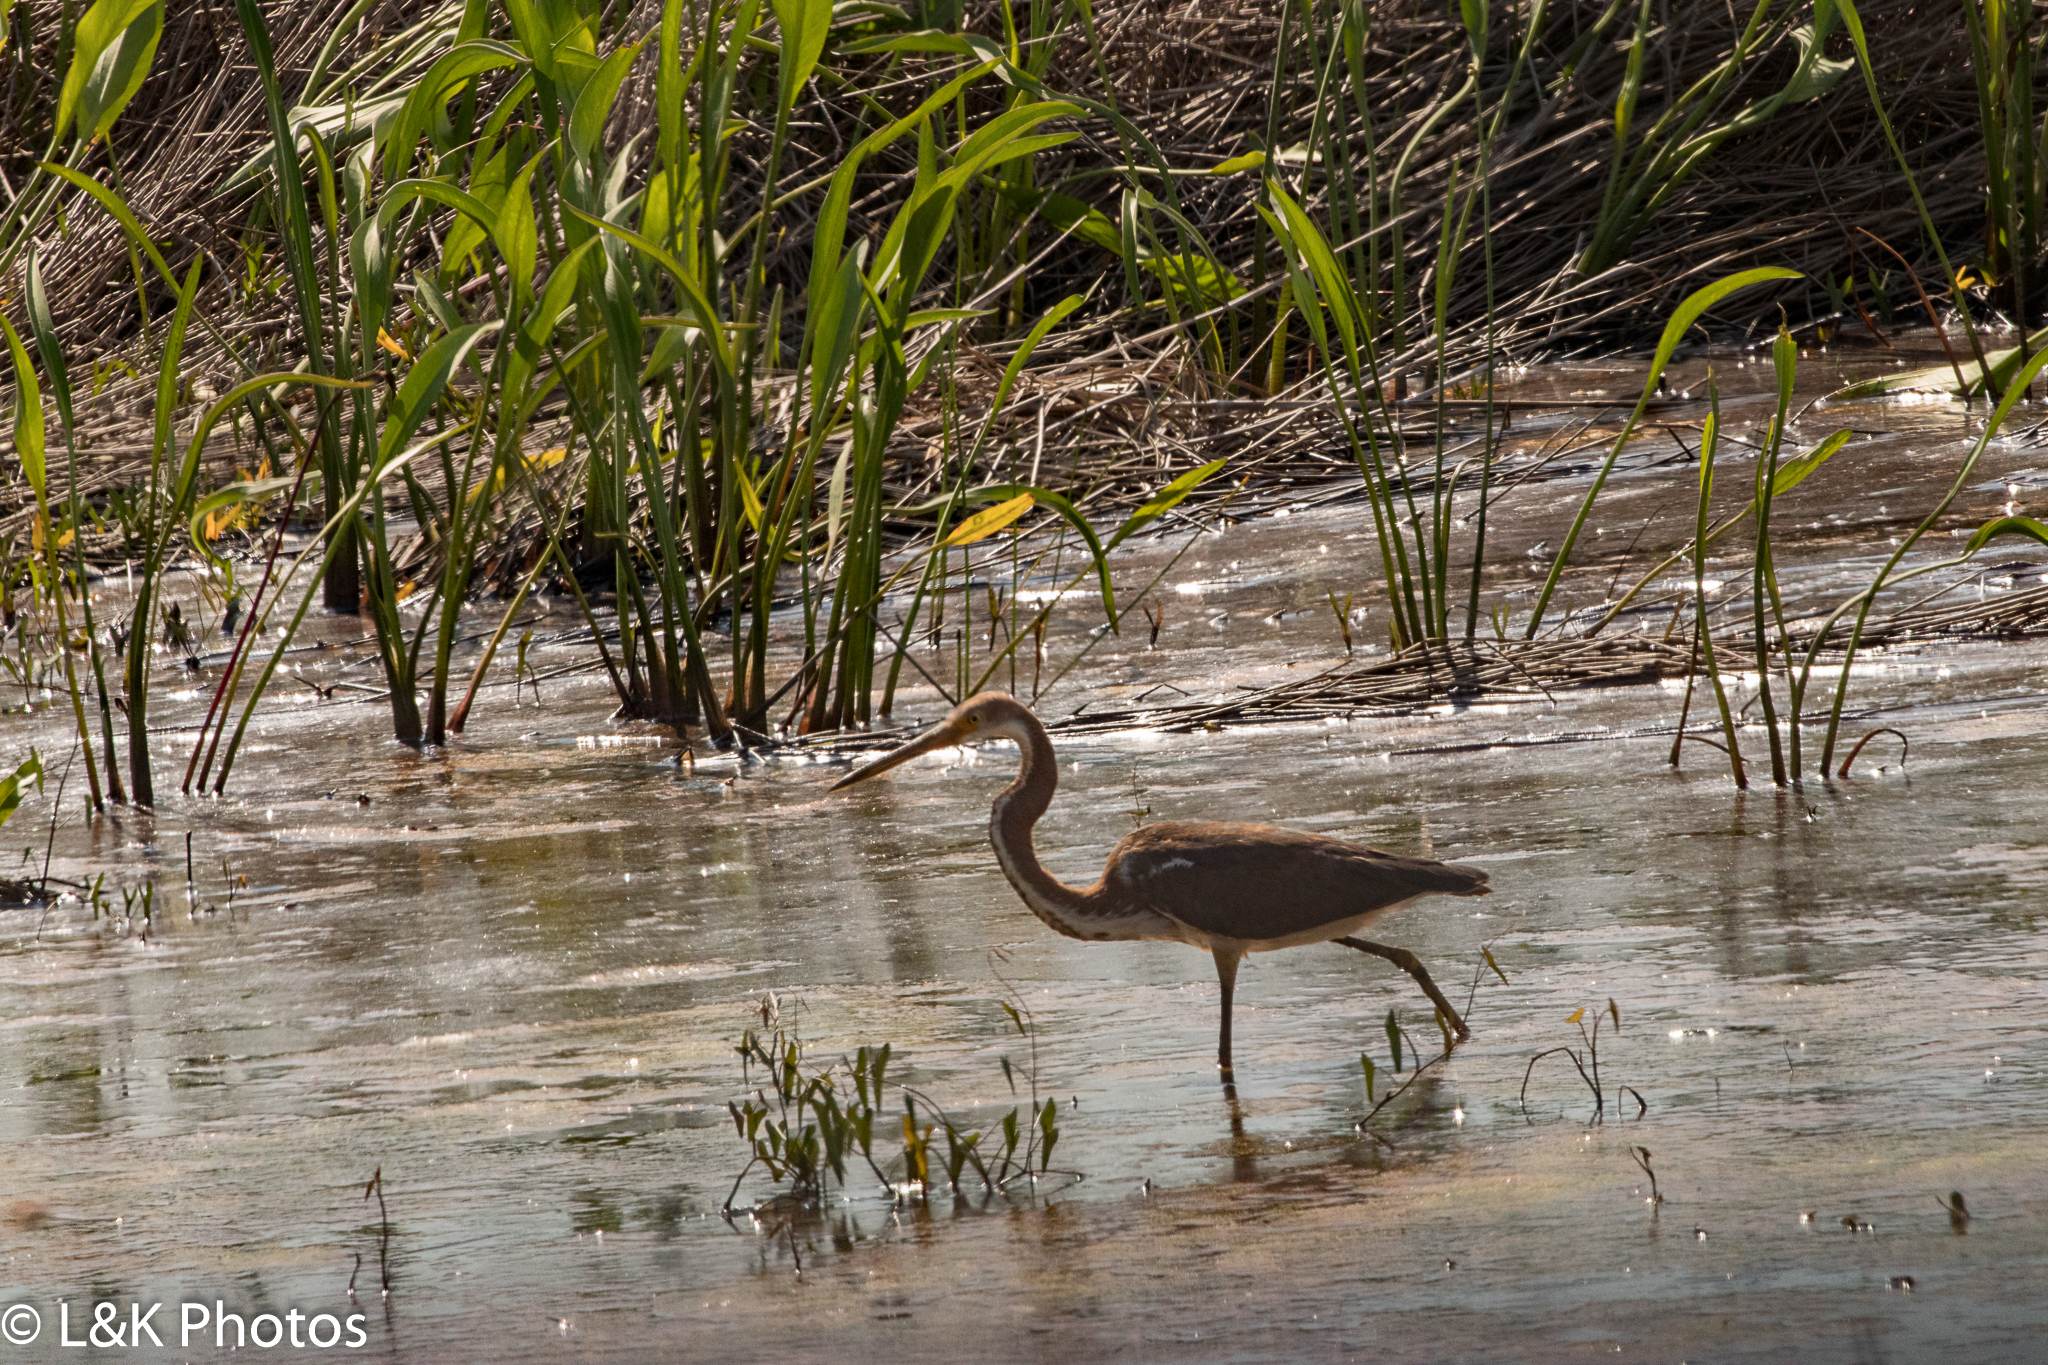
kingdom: Animalia
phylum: Chordata
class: Aves
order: Pelecaniformes
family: Ardeidae
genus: Egretta
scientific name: Egretta tricolor
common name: Tricolored heron
